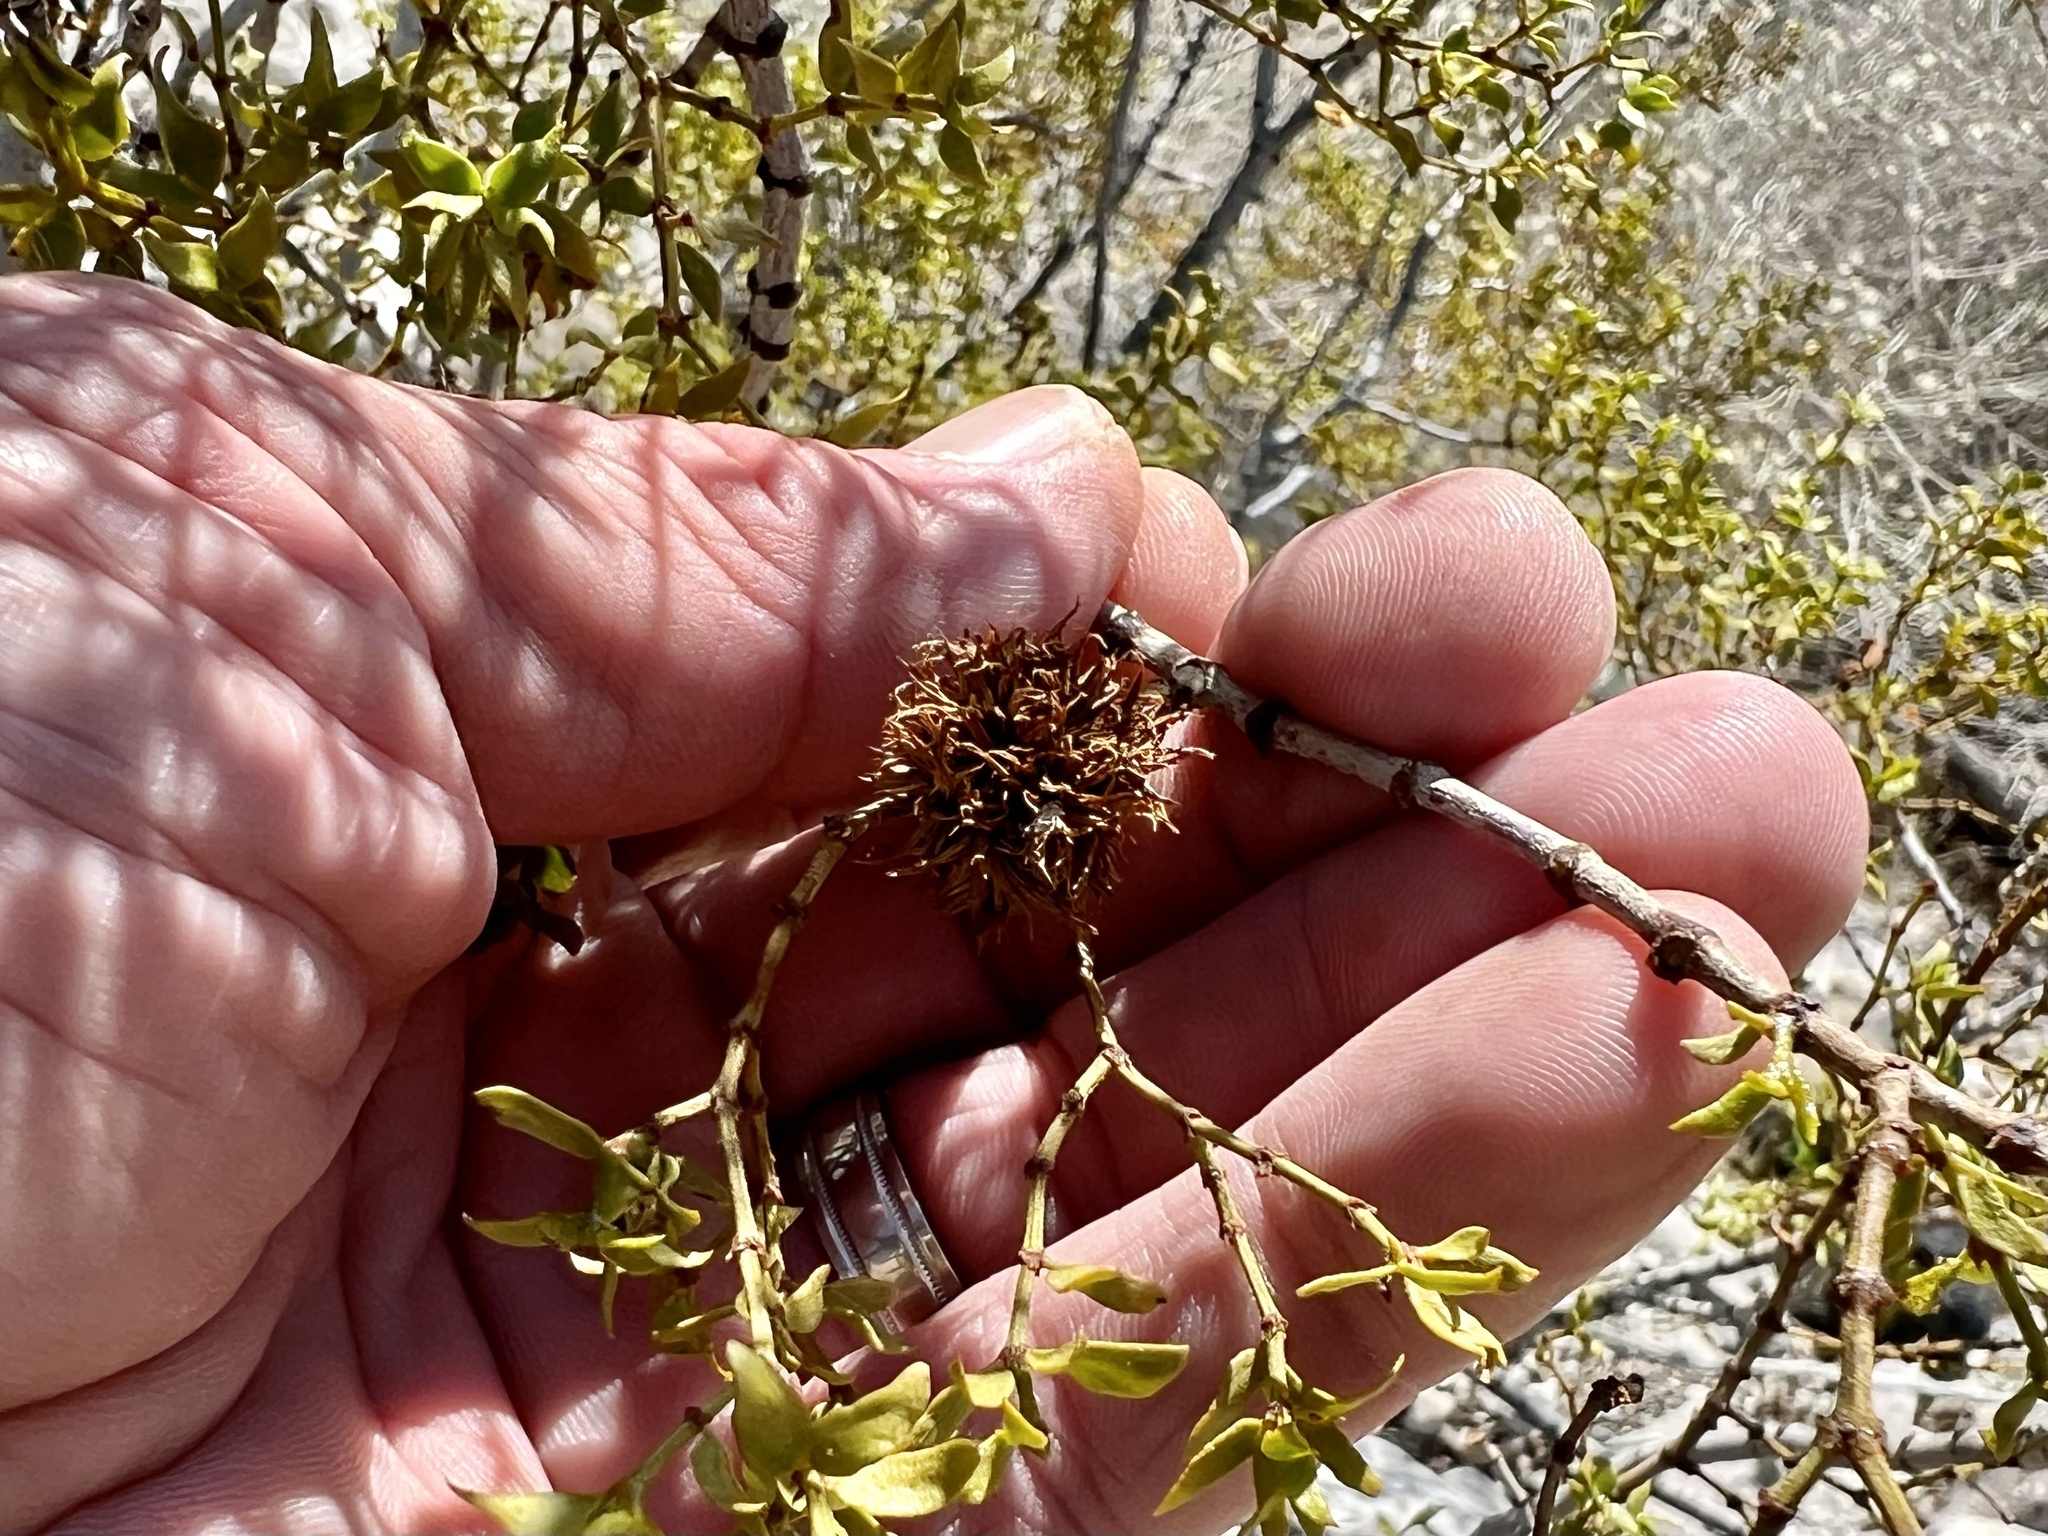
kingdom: Animalia
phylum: Arthropoda
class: Insecta
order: Diptera
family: Cecidomyiidae
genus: Asphondylia
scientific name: Asphondylia auripila
